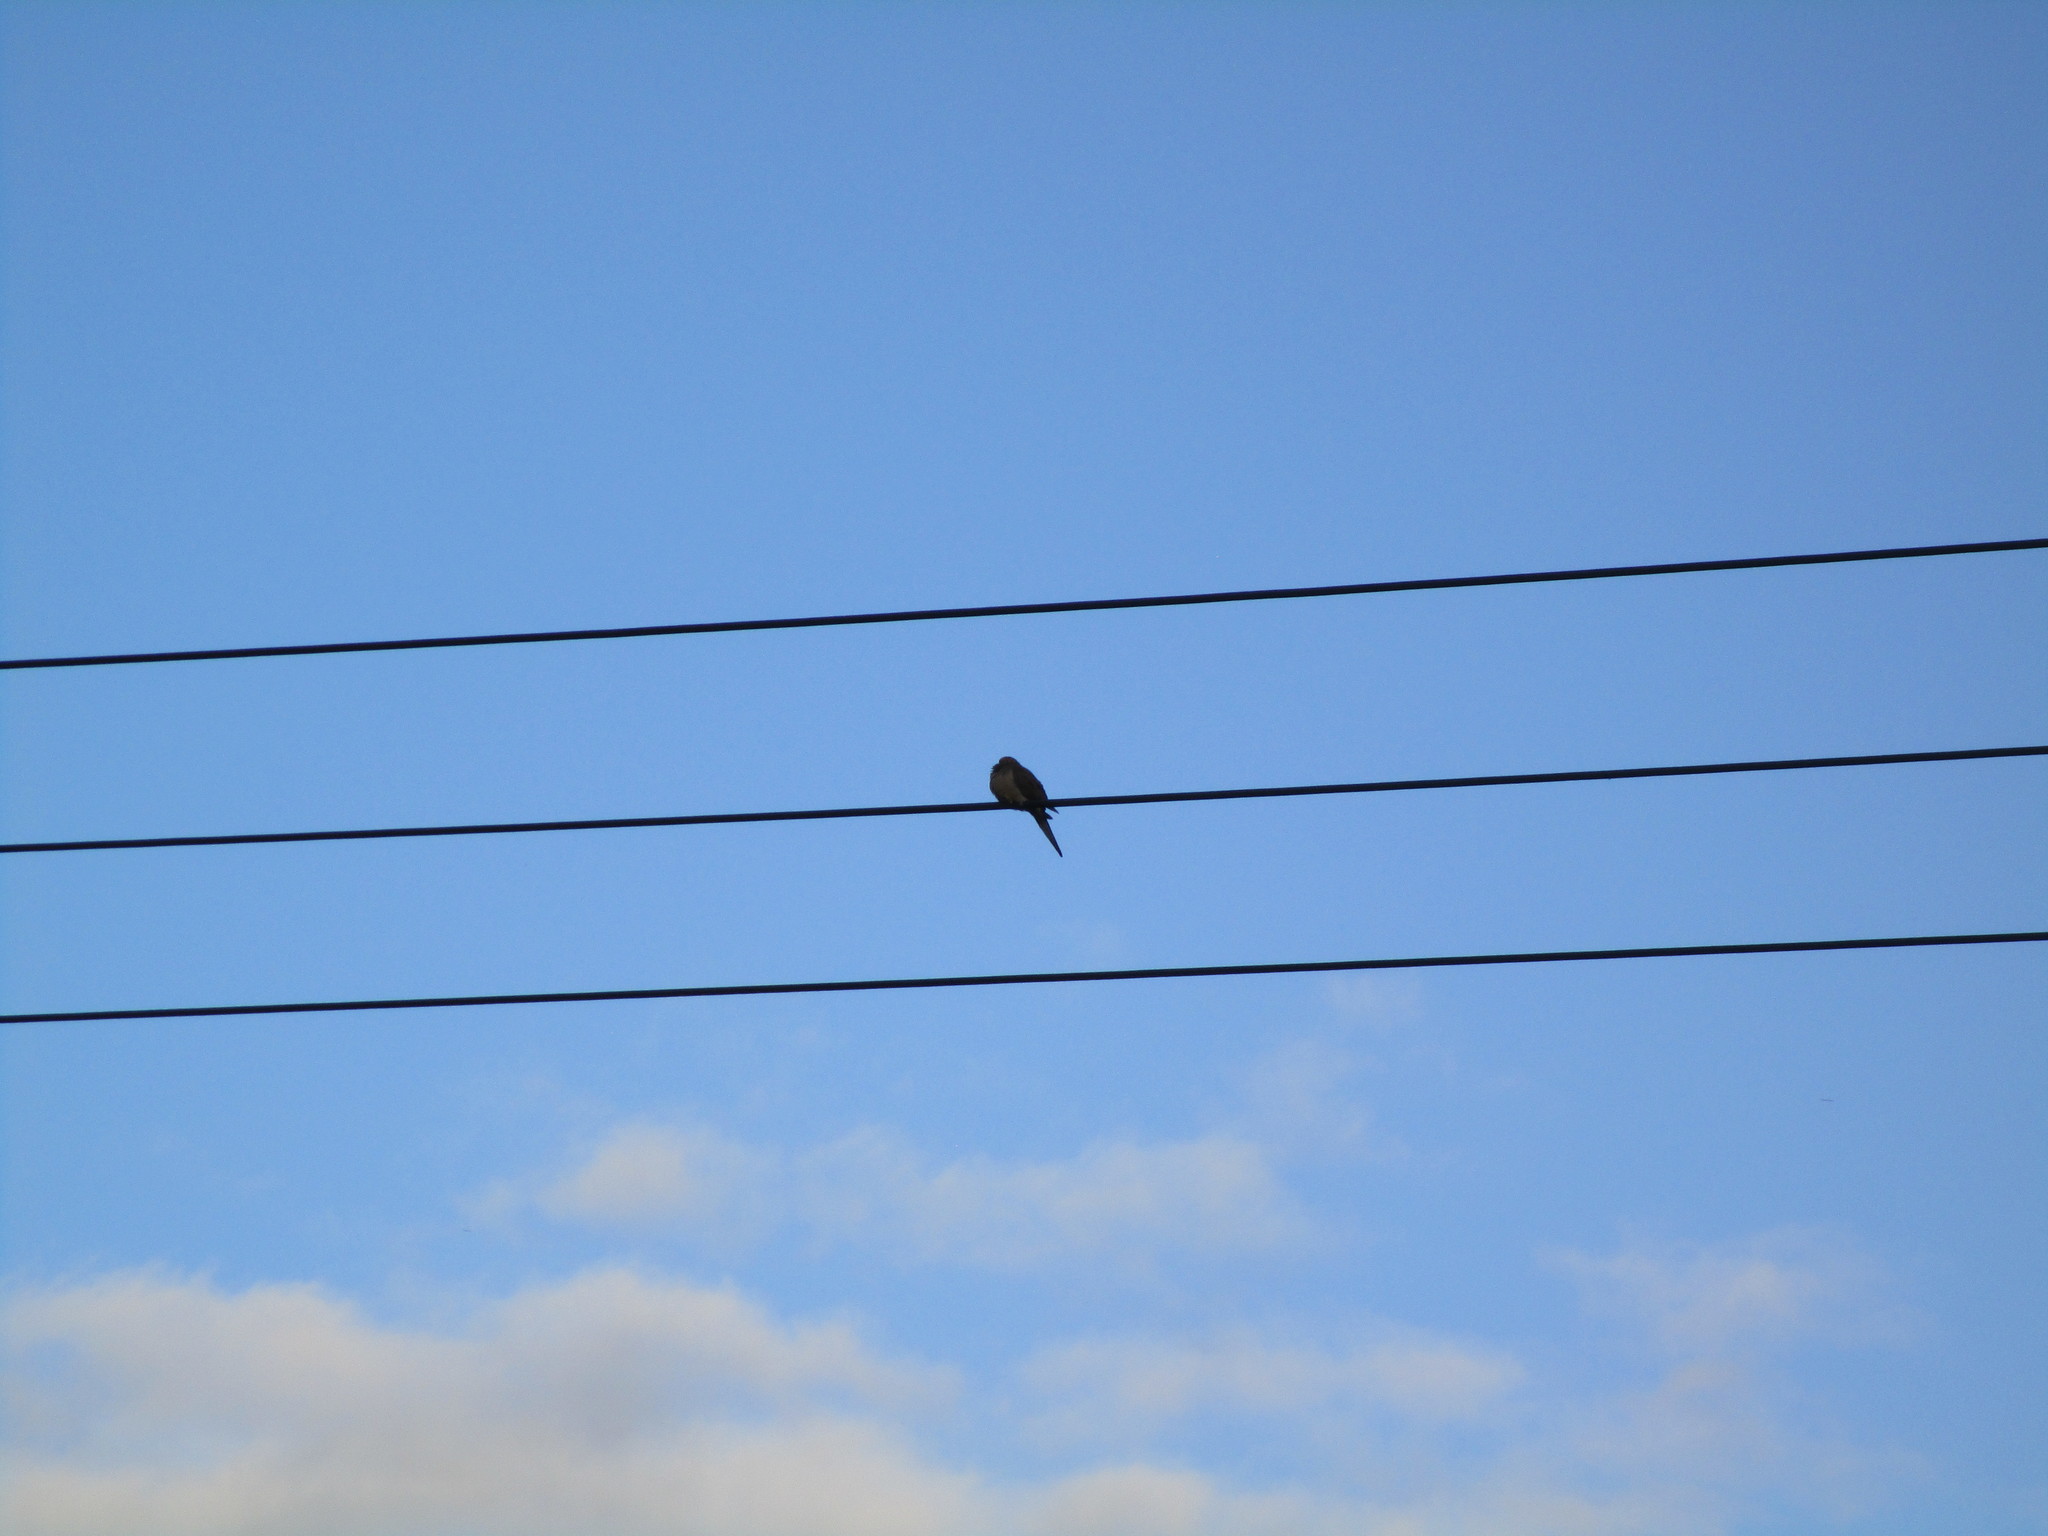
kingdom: Animalia
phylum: Chordata
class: Aves
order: Columbiformes
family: Columbidae
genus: Zenaida
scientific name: Zenaida macroura
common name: Mourning dove
